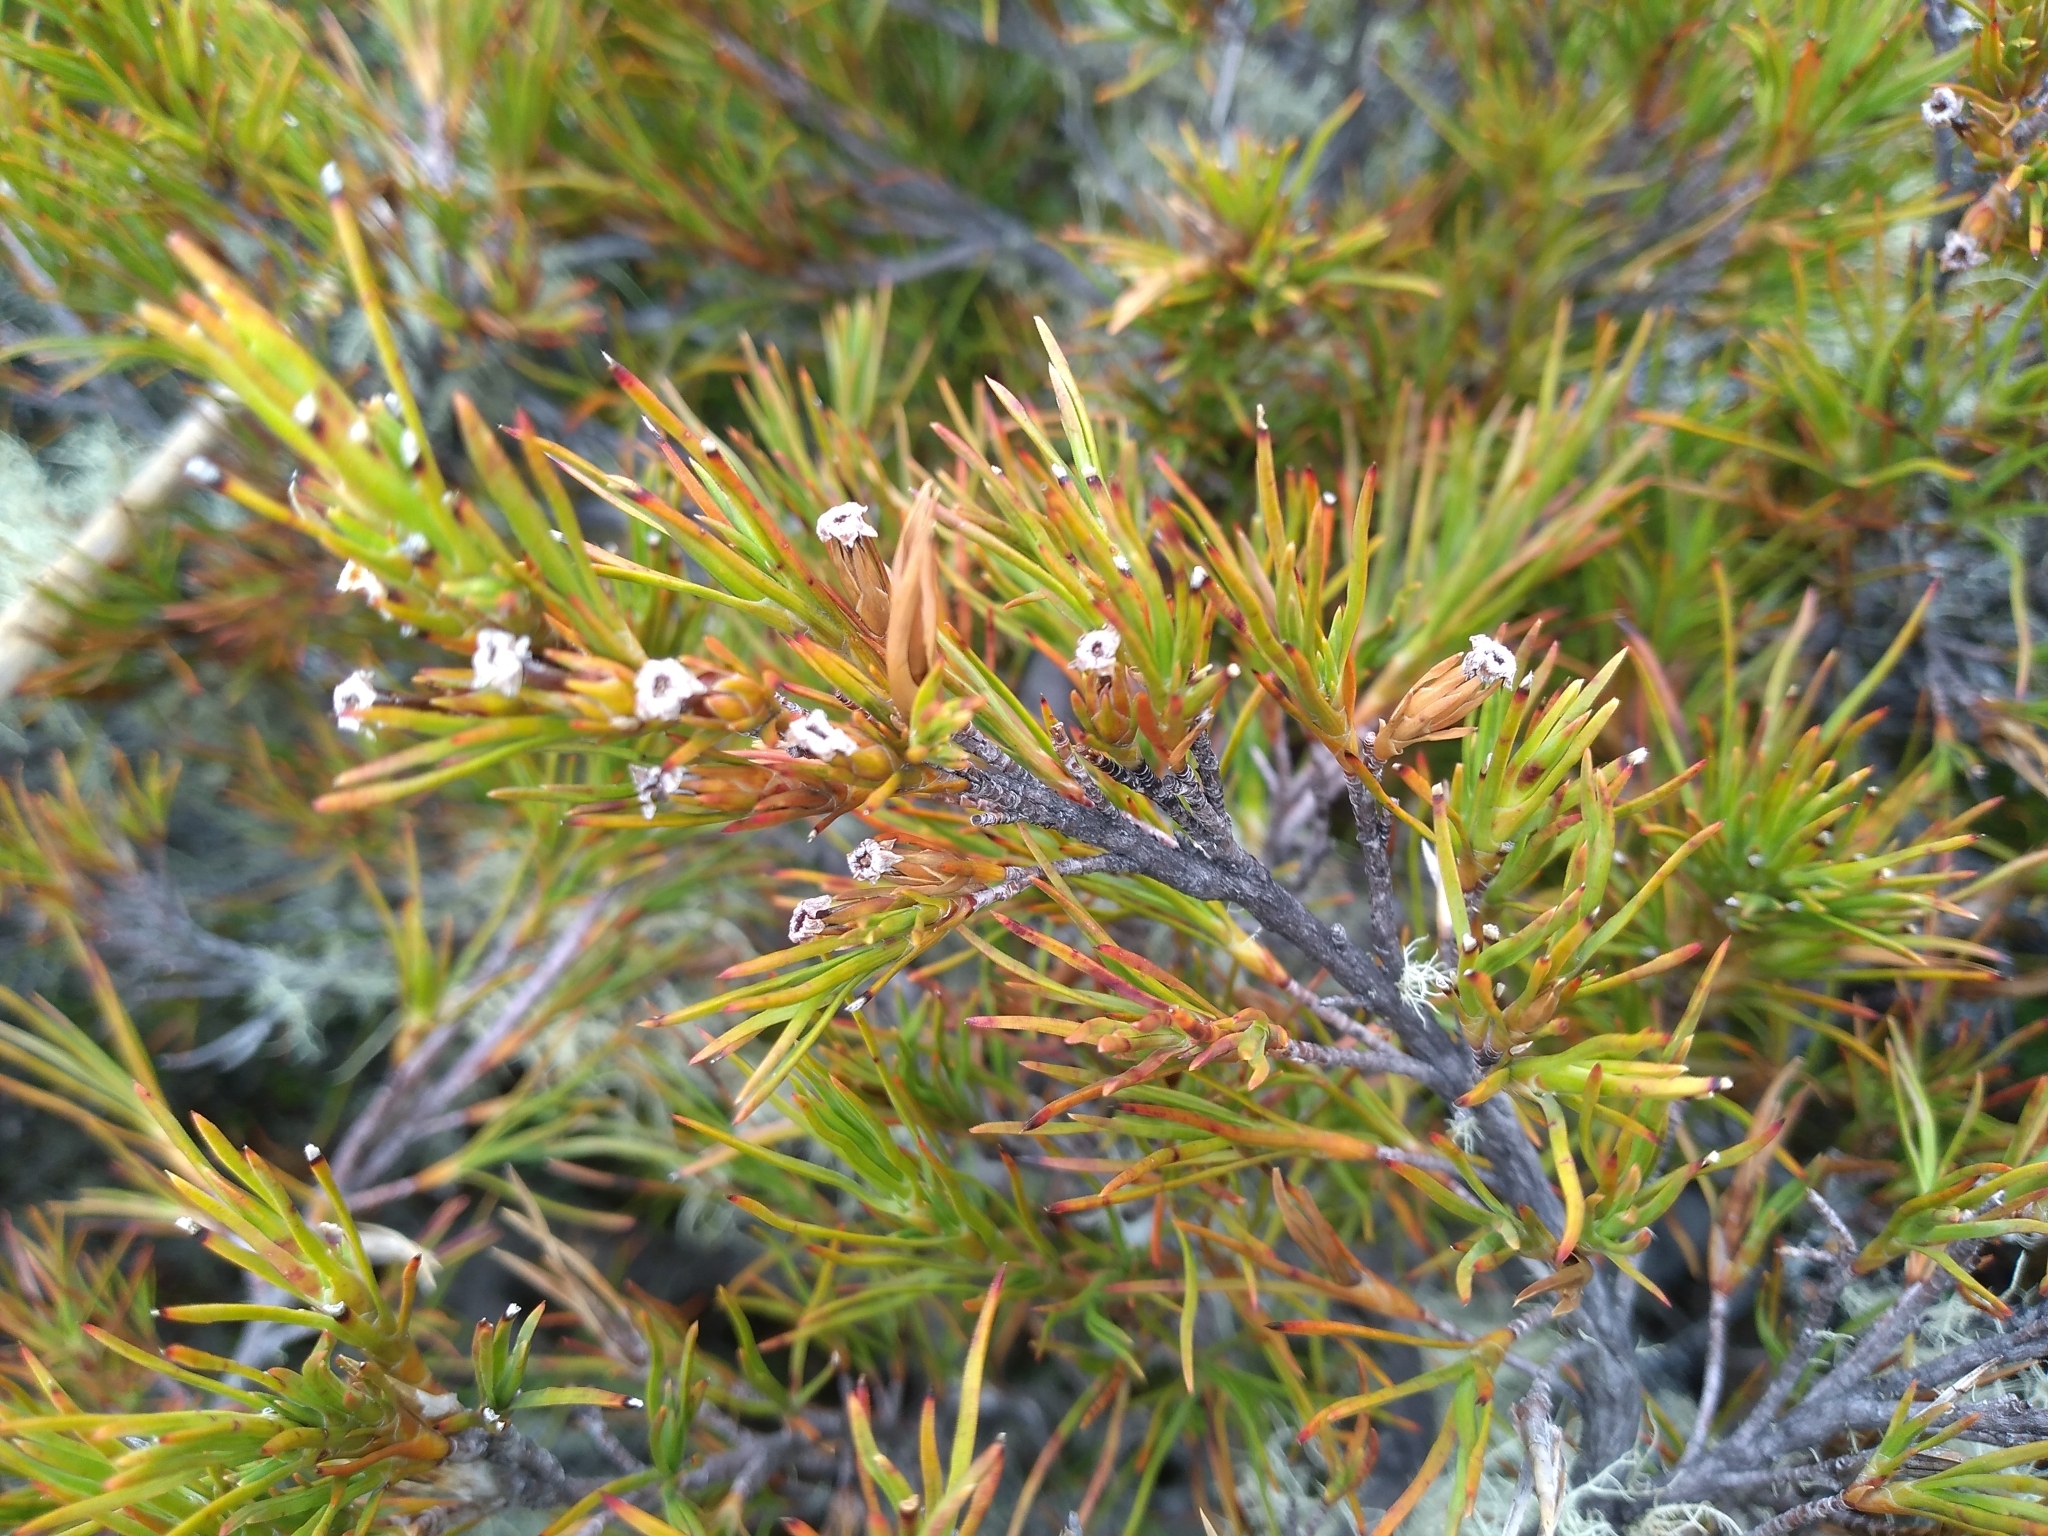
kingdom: Plantae
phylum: Tracheophyta
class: Magnoliopsida
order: Ericales
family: Ericaceae
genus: Dracophyllum
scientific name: Dracophyllum rosmarinifolium
